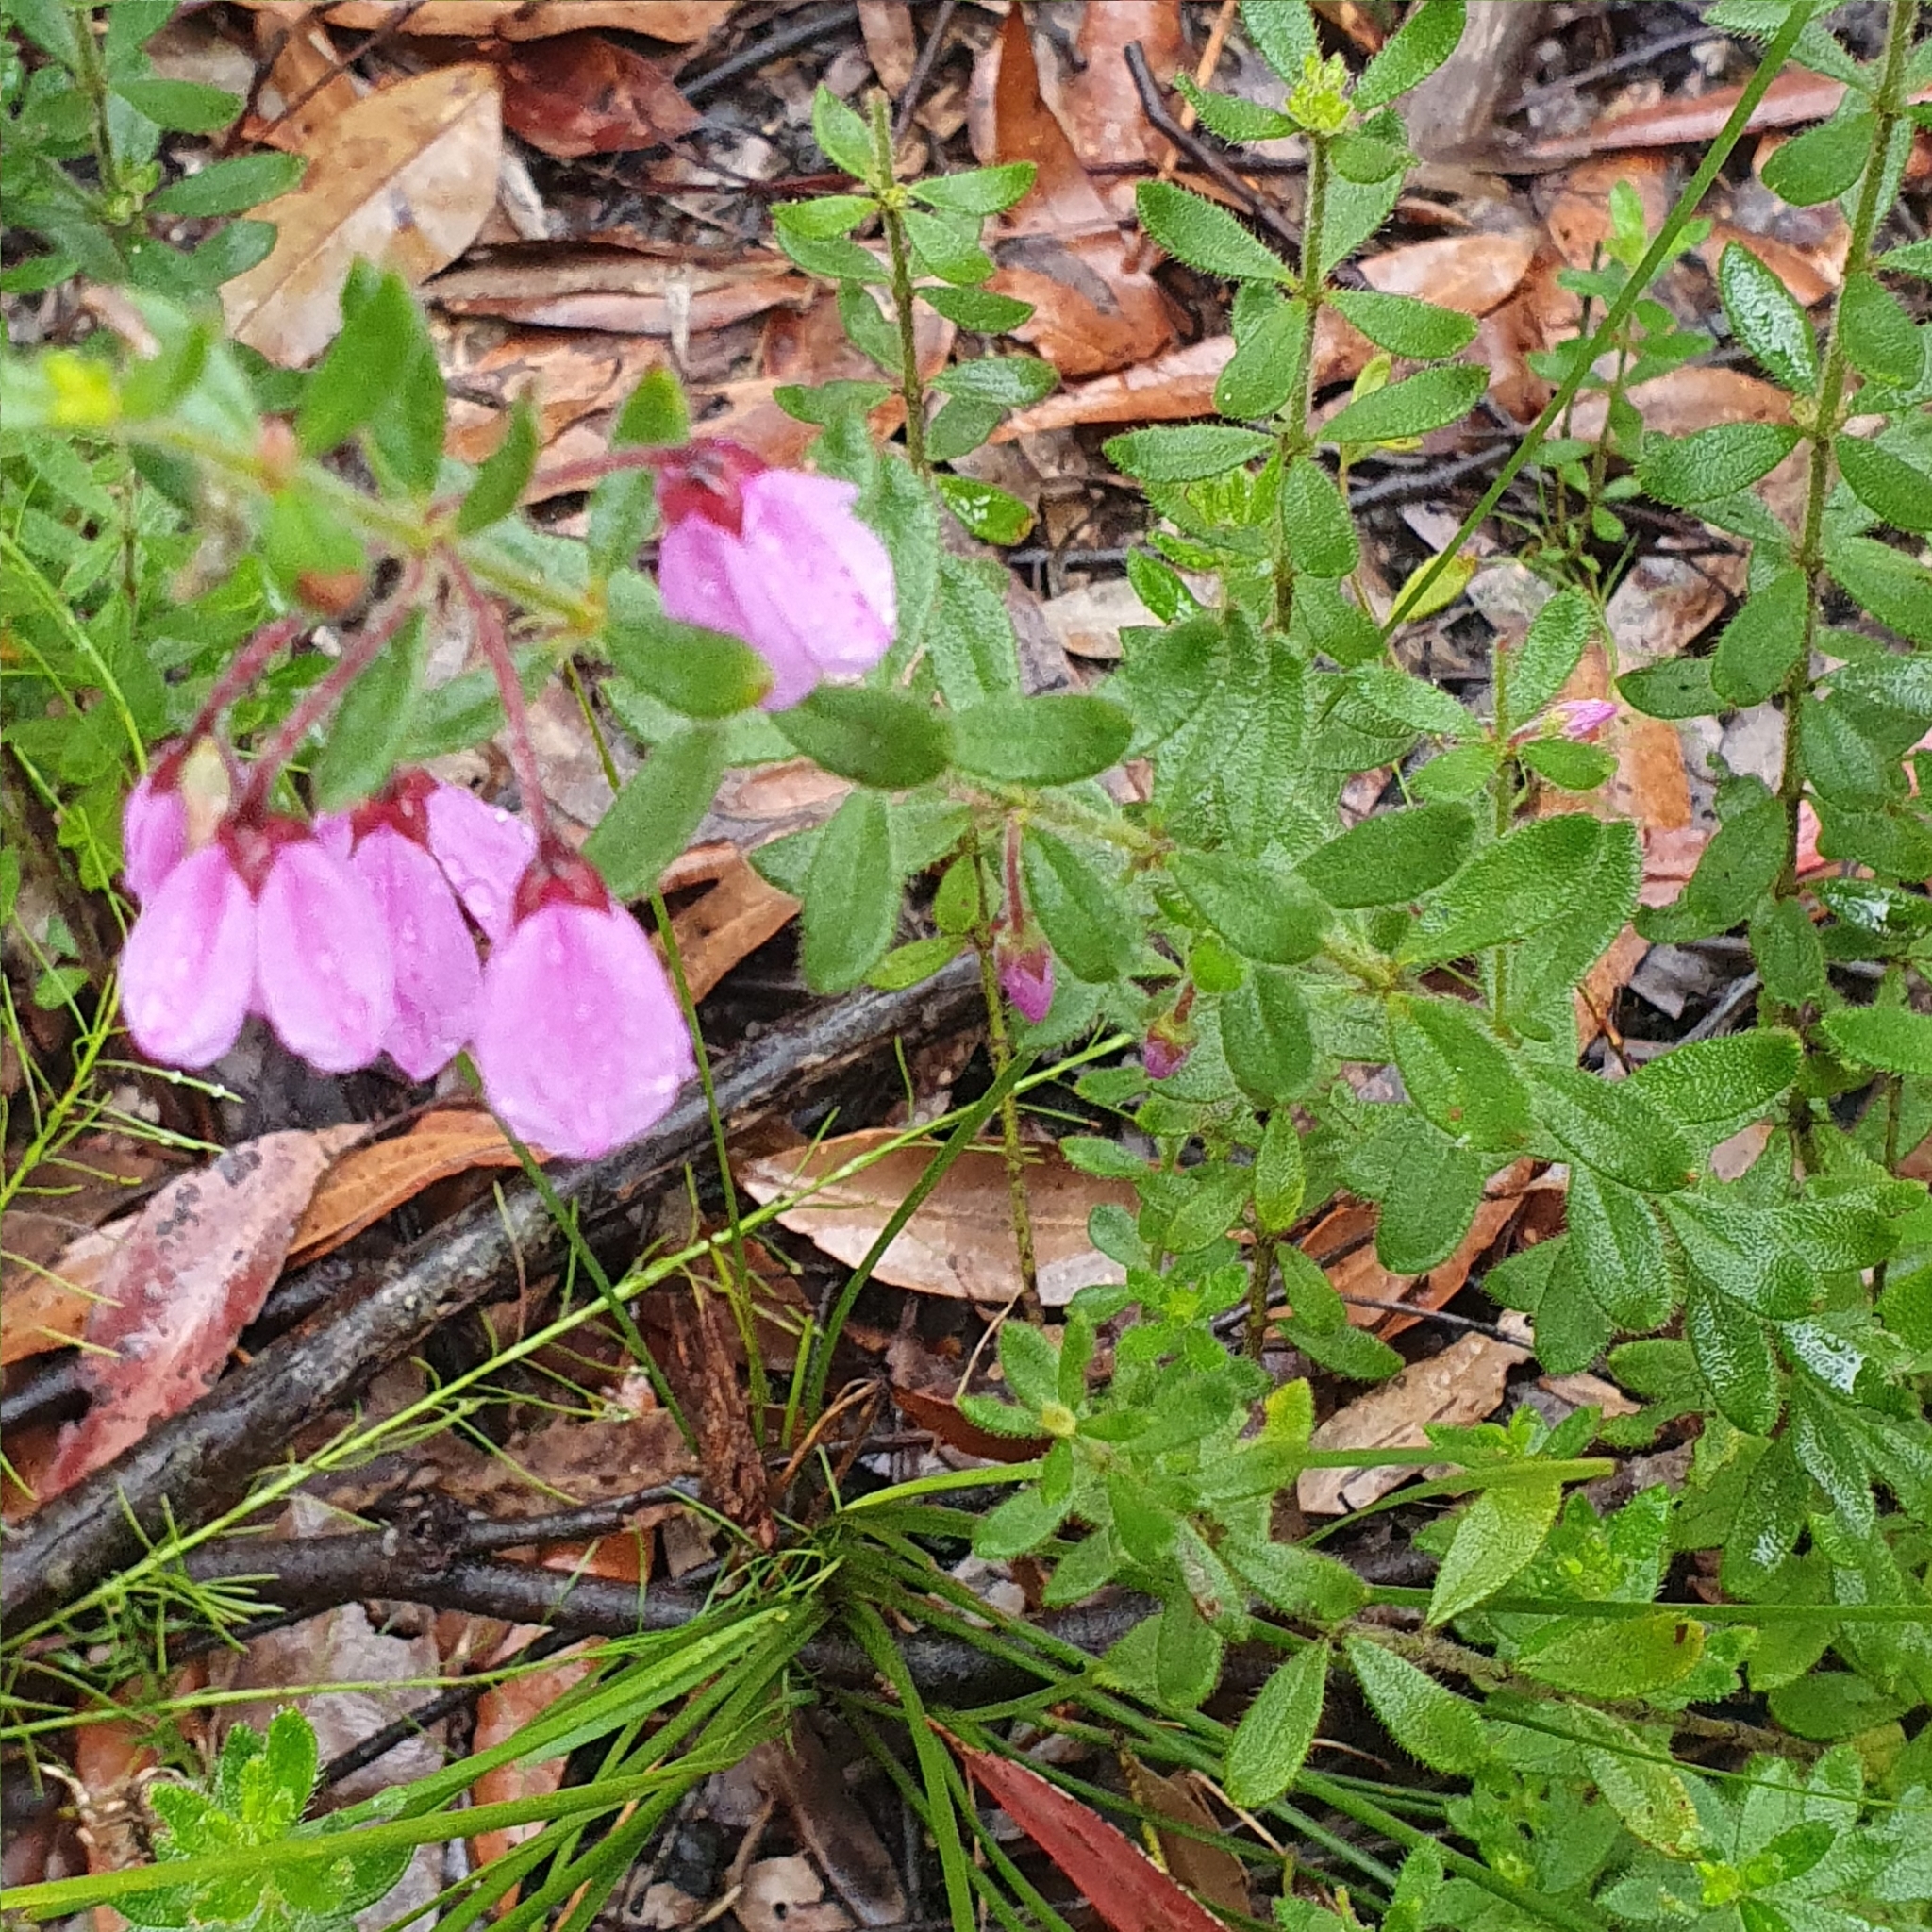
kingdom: Plantae
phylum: Tracheophyta
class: Magnoliopsida
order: Oxalidales
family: Elaeocarpaceae
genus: Tetratheca
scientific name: Tetratheca thymifolia
